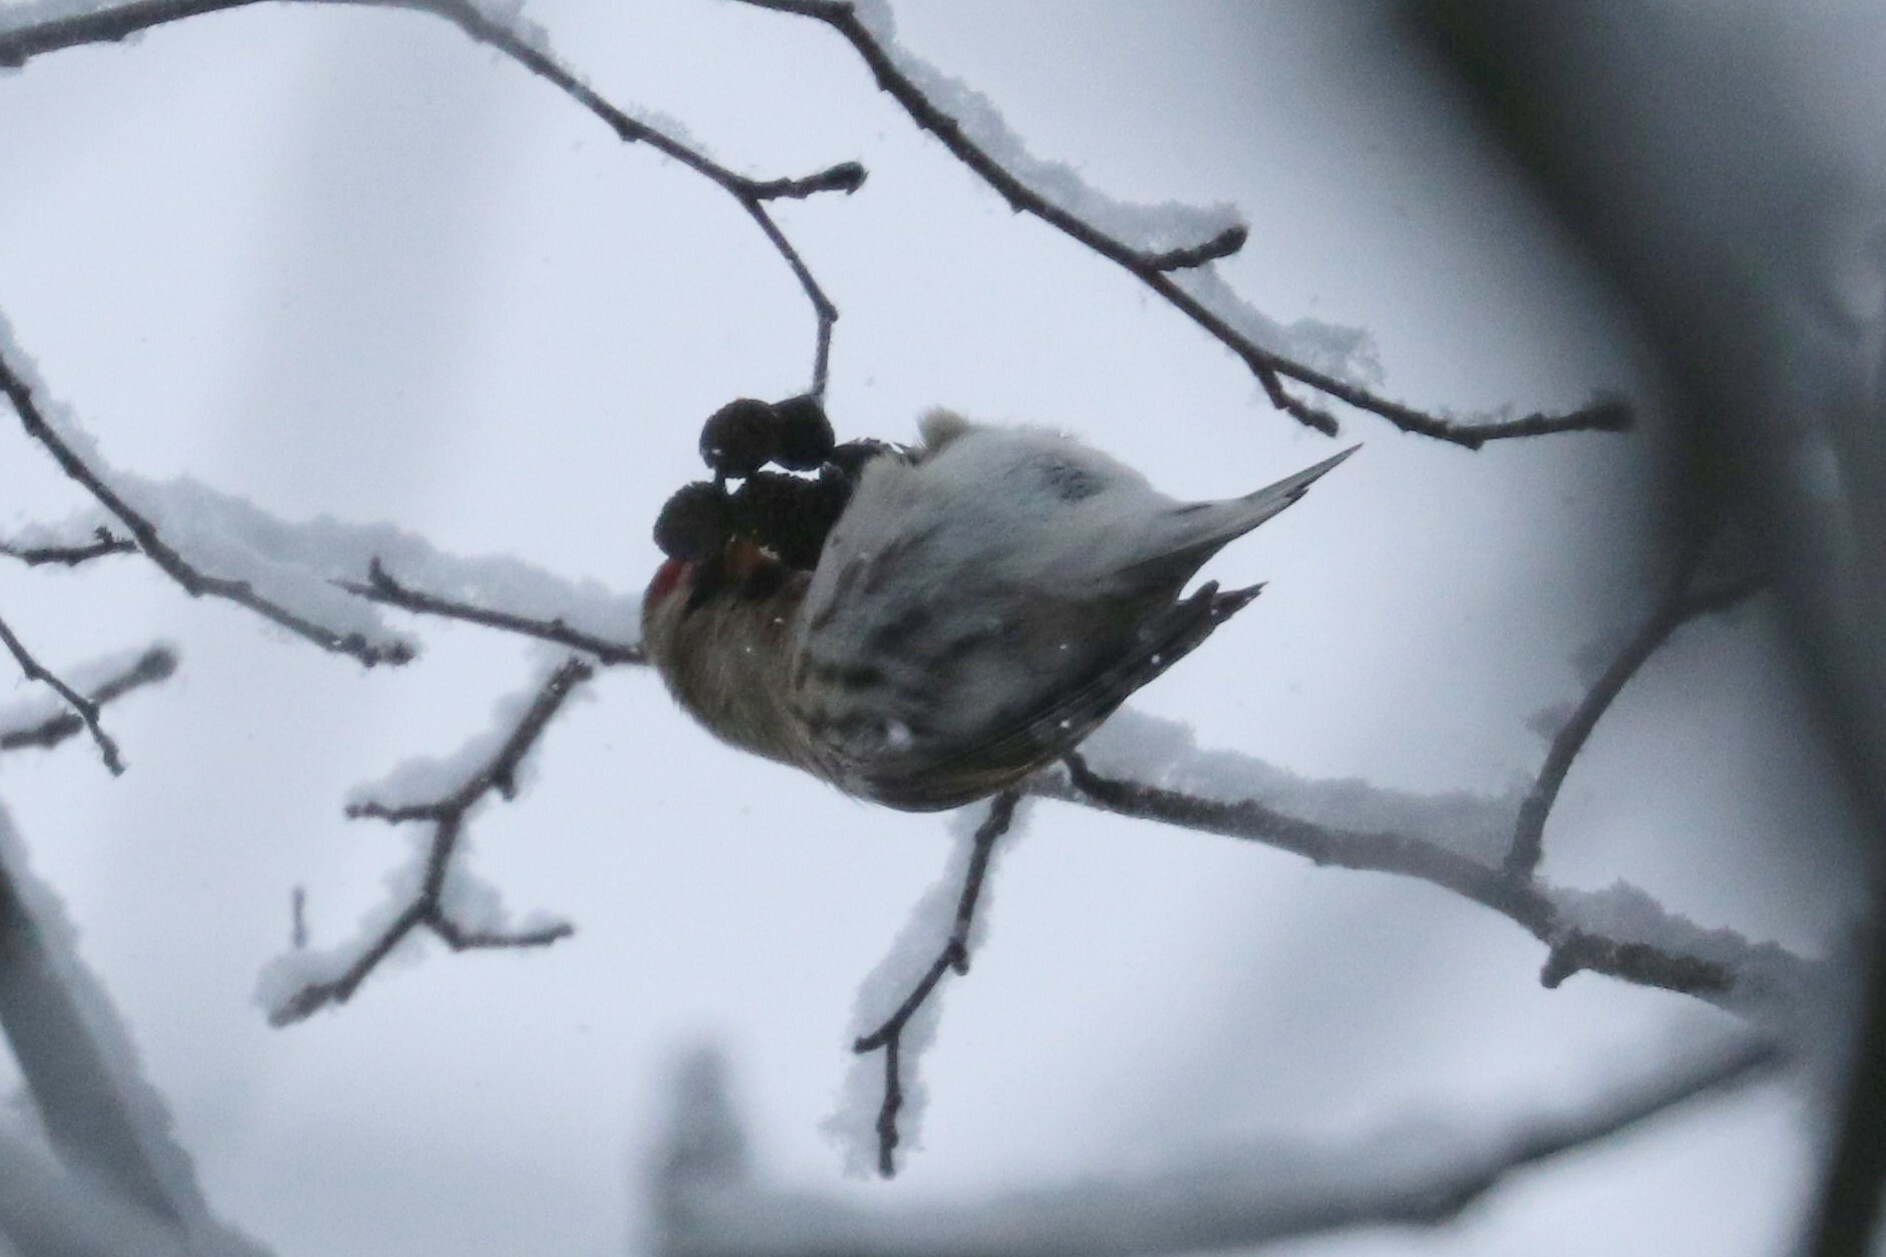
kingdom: Animalia
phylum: Chordata
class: Aves
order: Passeriformes
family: Fringillidae
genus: Acanthis
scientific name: Acanthis flammea
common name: Common redpoll
